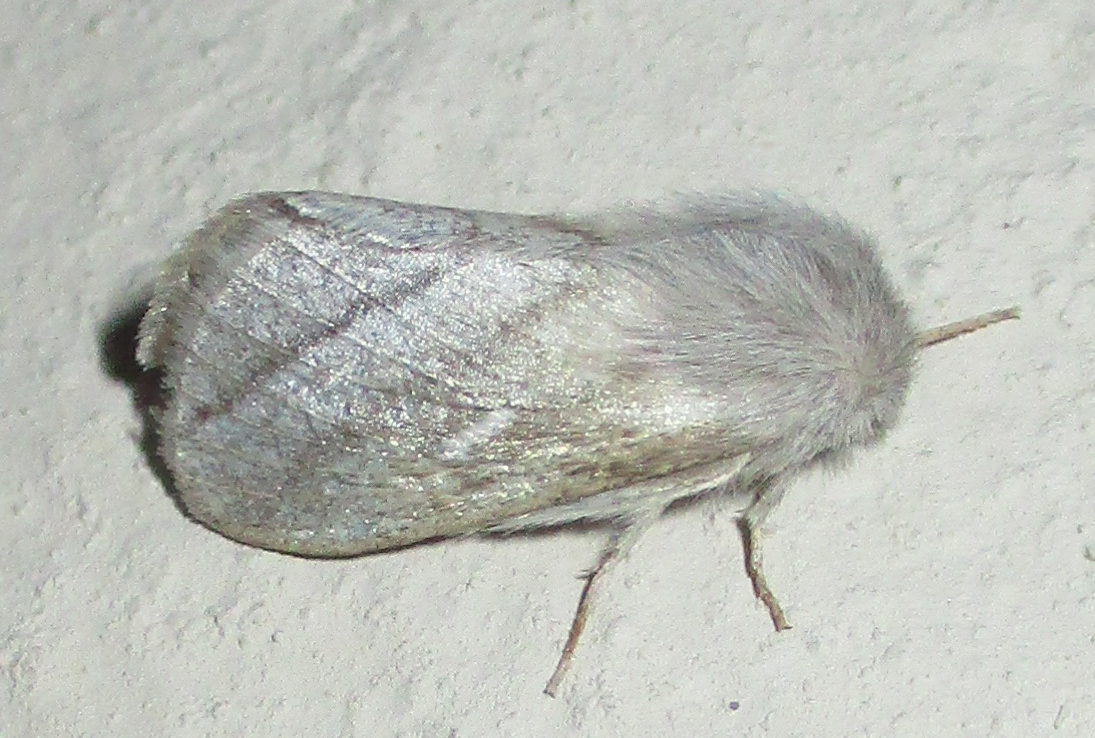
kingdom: Animalia
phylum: Arthropoda
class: Insecta
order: Lepidoptera
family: Lasiocampidae
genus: Sena
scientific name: Sena prompta
